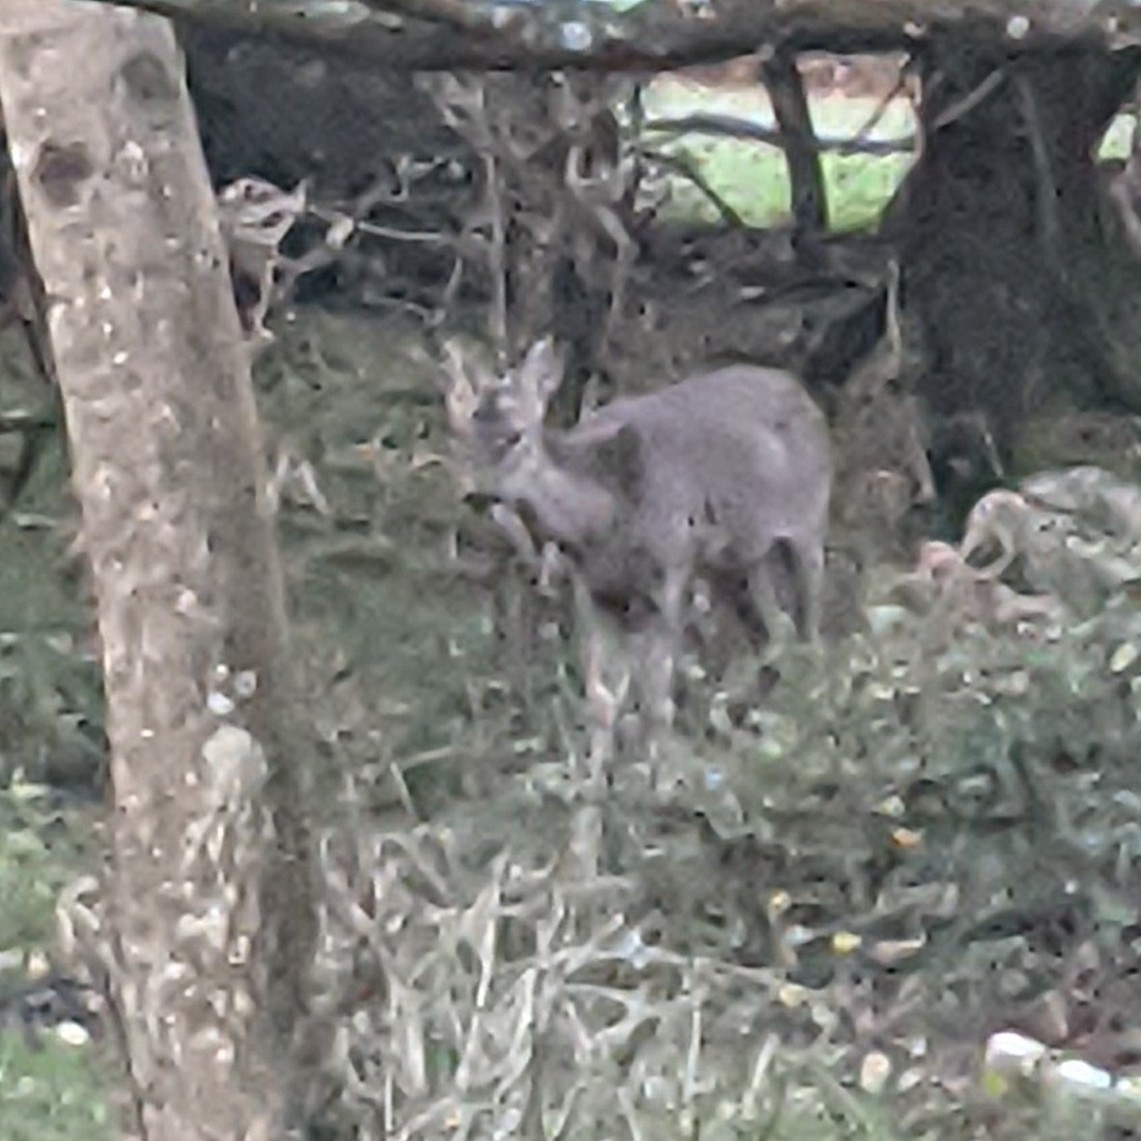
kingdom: Animalia
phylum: Chordata
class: Mammalia
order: Artiodactyla
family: Cervidae
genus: Capreolus
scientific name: Capreolus capreolus
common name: Western roe deer
